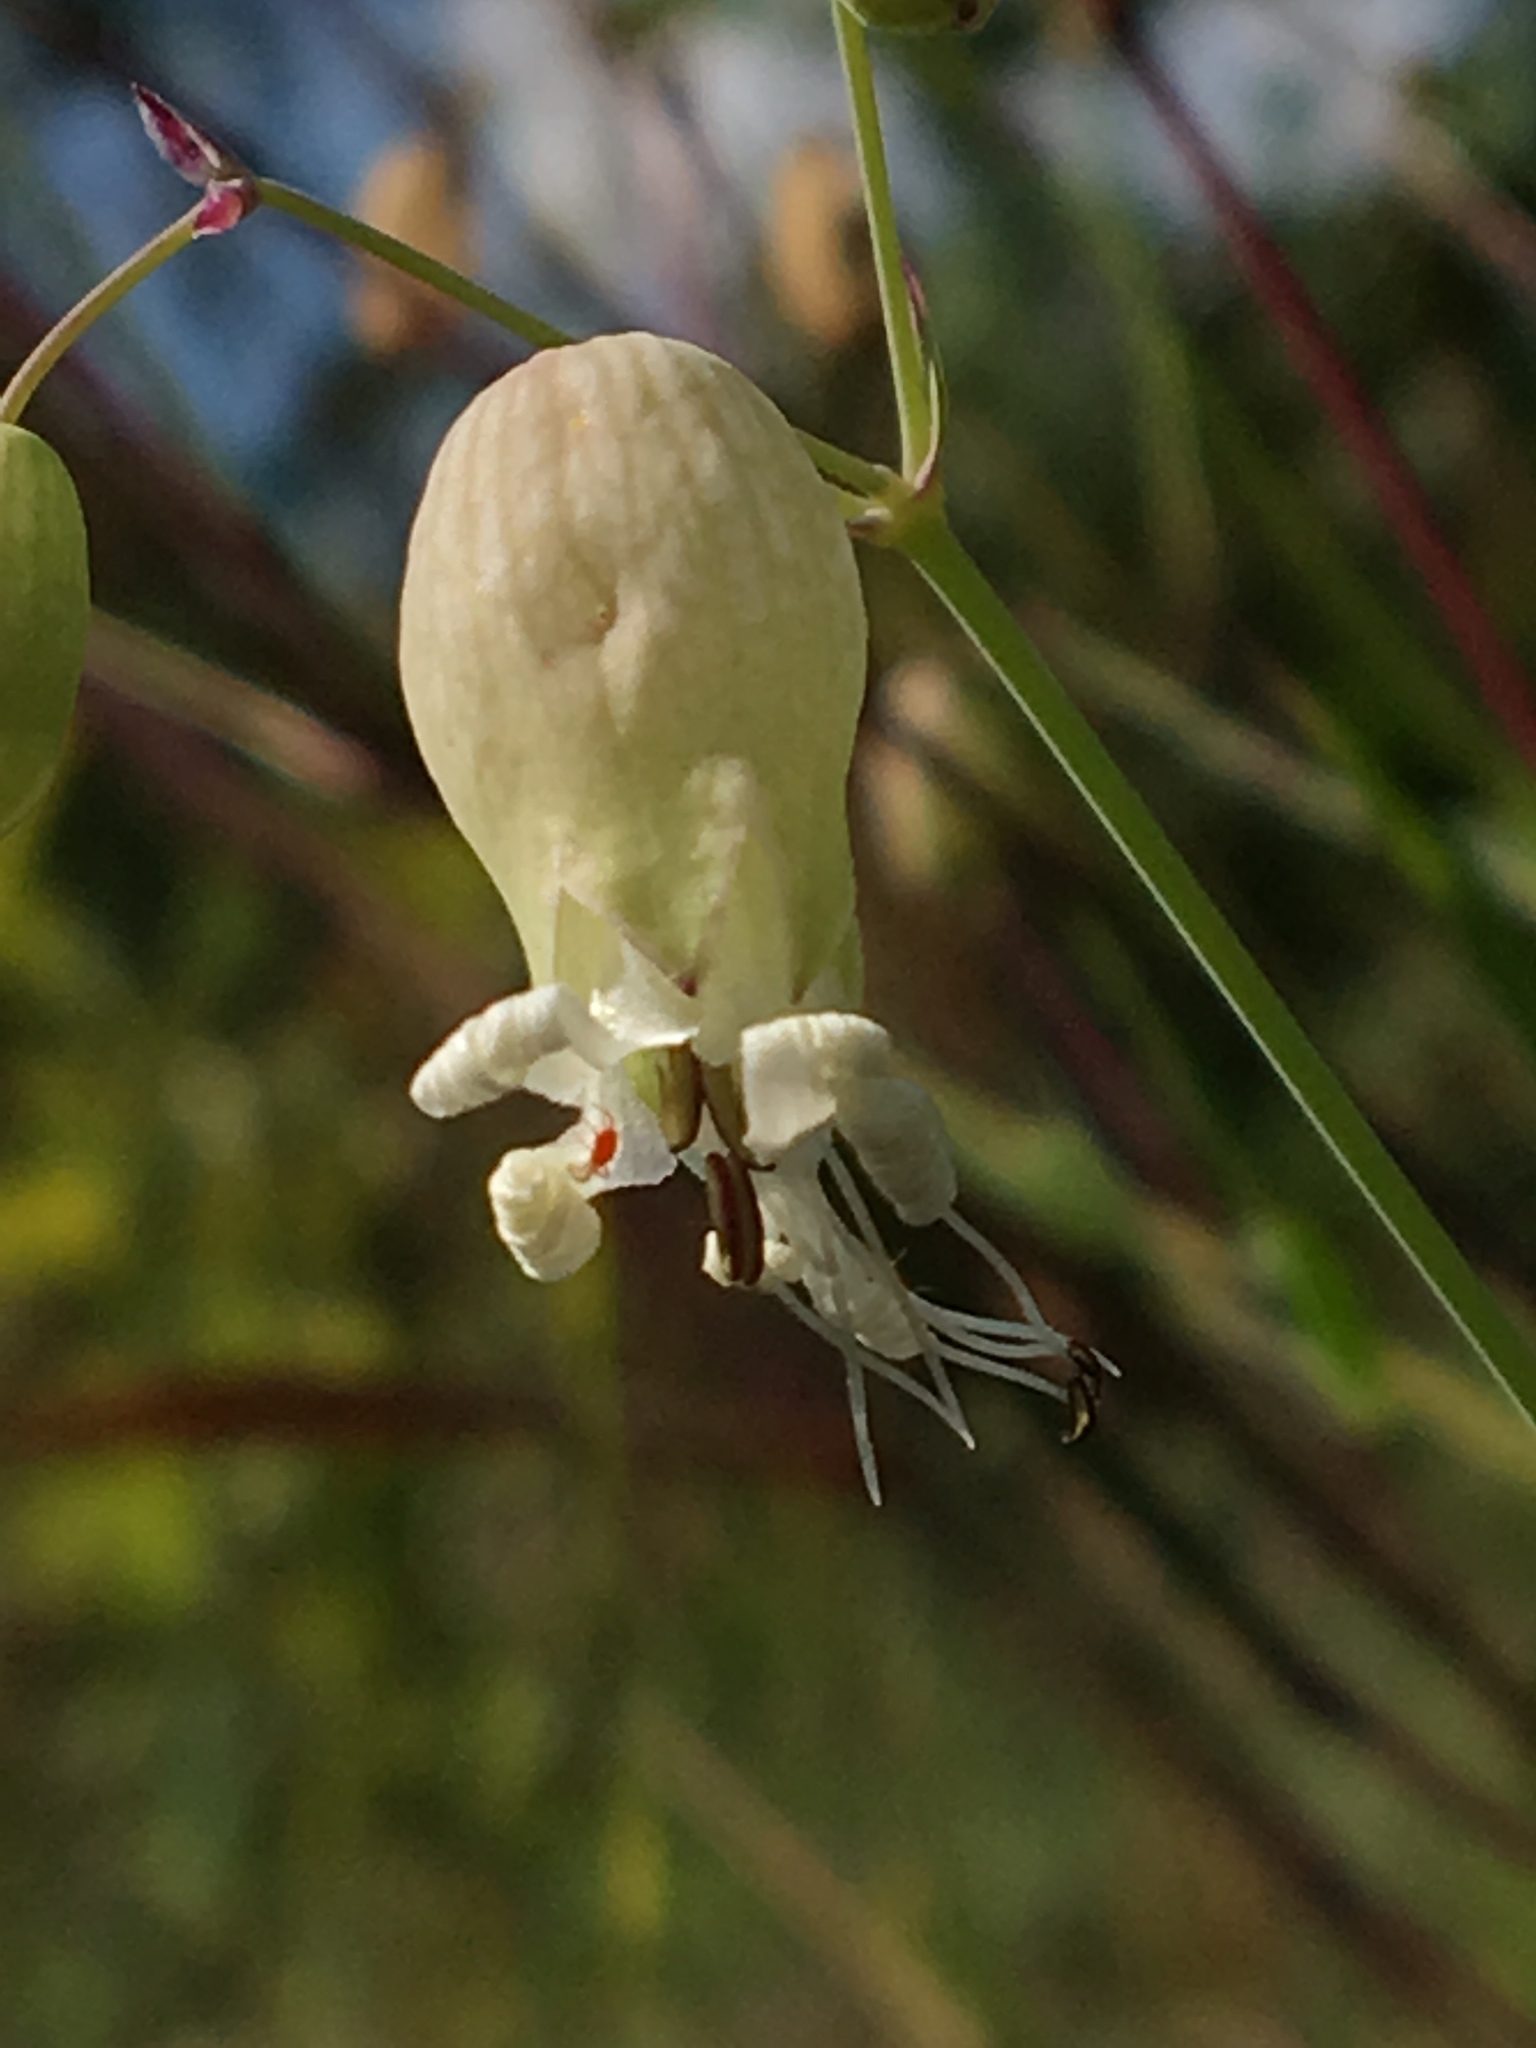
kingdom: Plantae
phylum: Tracheophyta
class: Magnoliopsida
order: Caryophyllales
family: Caryophyllaceae
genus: Silene
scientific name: Silene vulgaris
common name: Bladder campion
